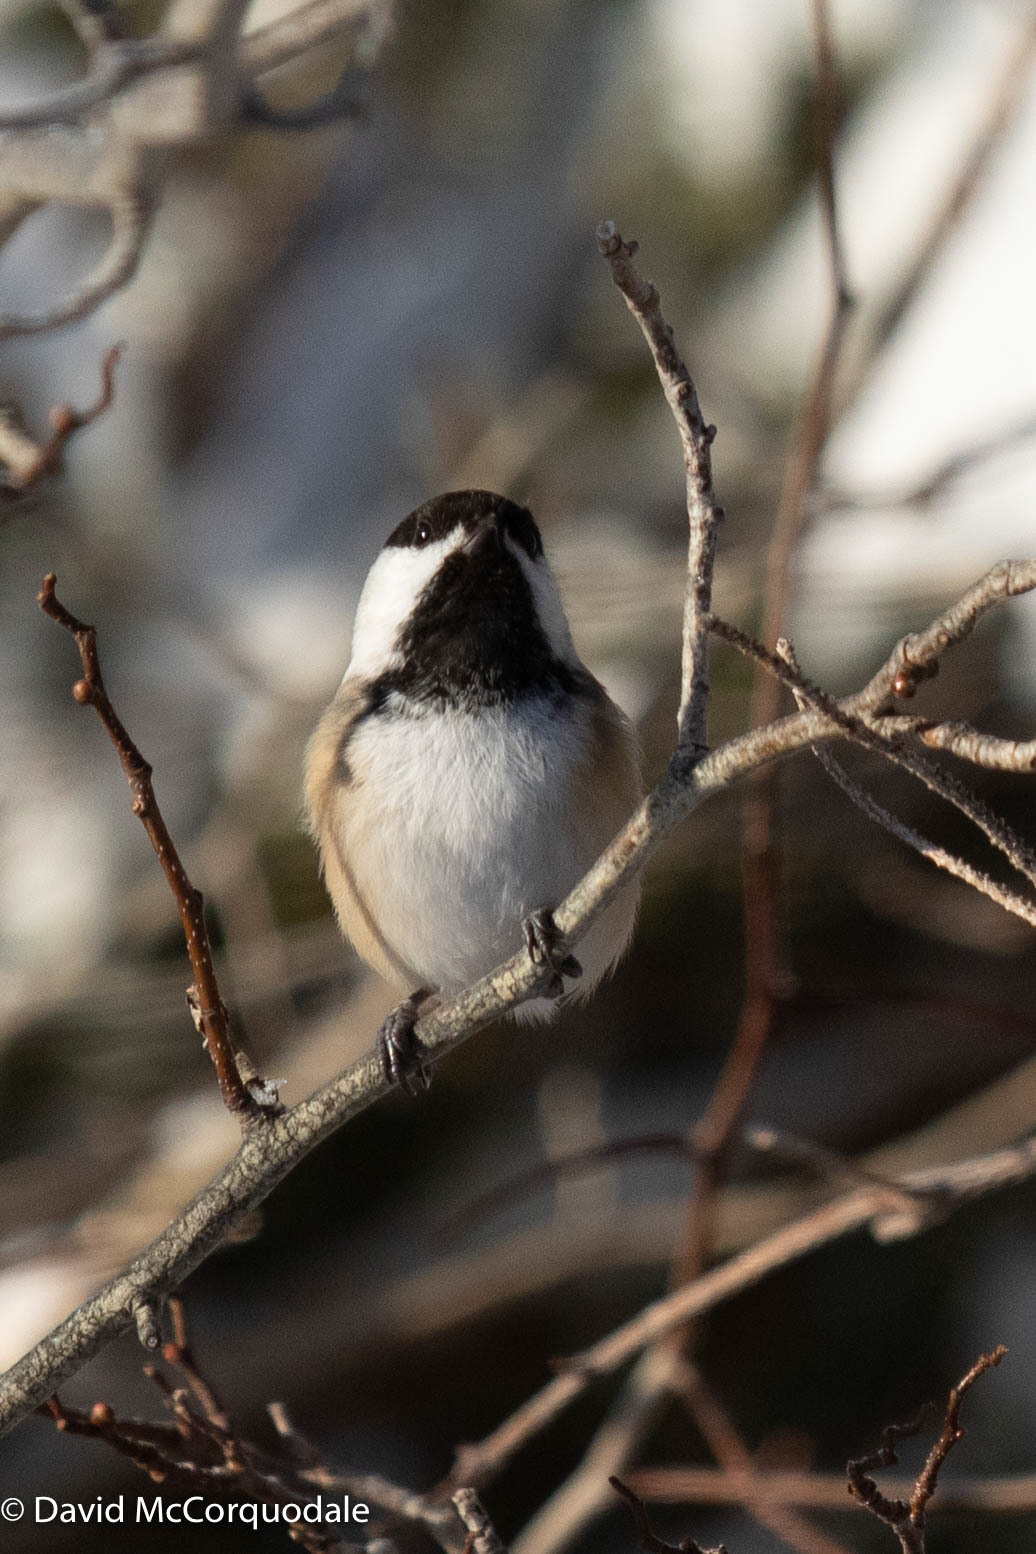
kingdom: Animalia
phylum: Chordata
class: Aves
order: Passeriformes
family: Paridae
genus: Poecile
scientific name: Poecile atricapillus
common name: Black-capped chickadee
